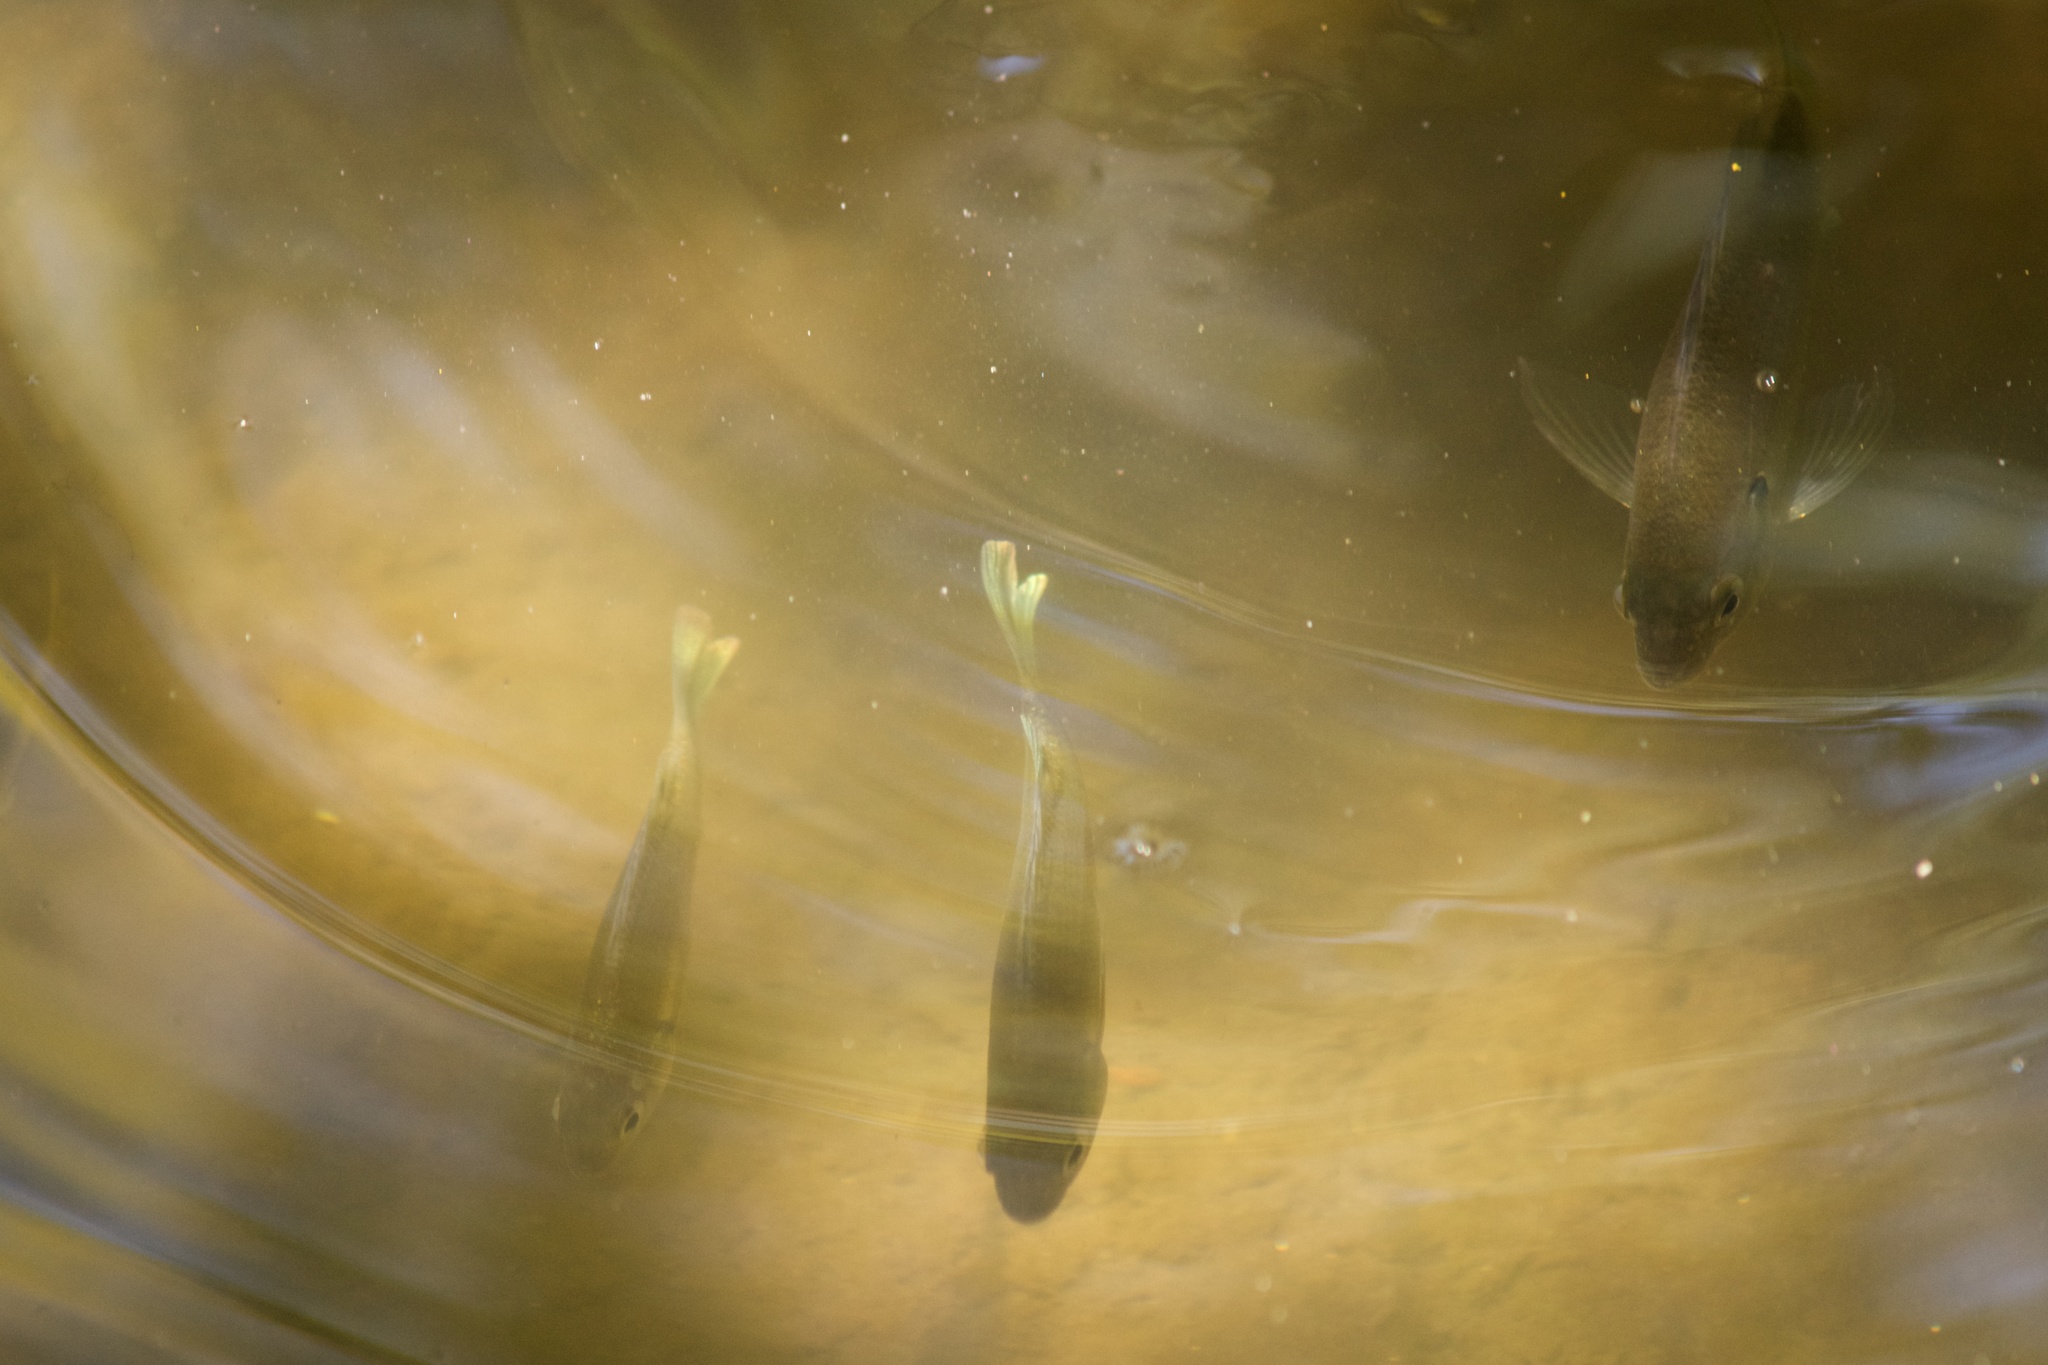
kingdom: Animalia
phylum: Chordata
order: Perciformes
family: Centrarchidae
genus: Lepomis
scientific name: Lepomis macrochirus
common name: Bluegill
